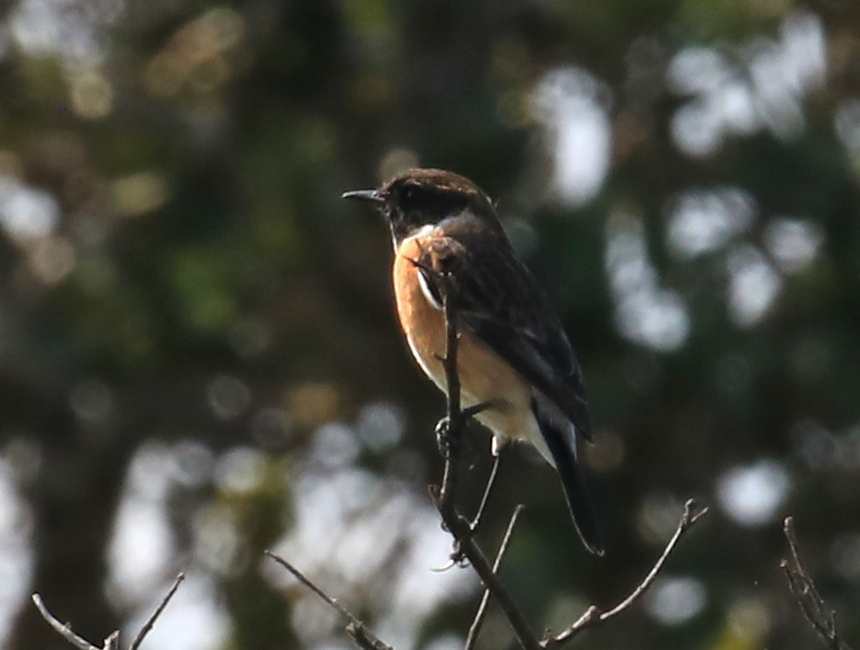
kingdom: Animalia
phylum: Chordata
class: Aves
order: Passeriformes
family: Muscicapidae
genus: Saxicola
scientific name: Saxicola torquatus
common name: African stonechat
